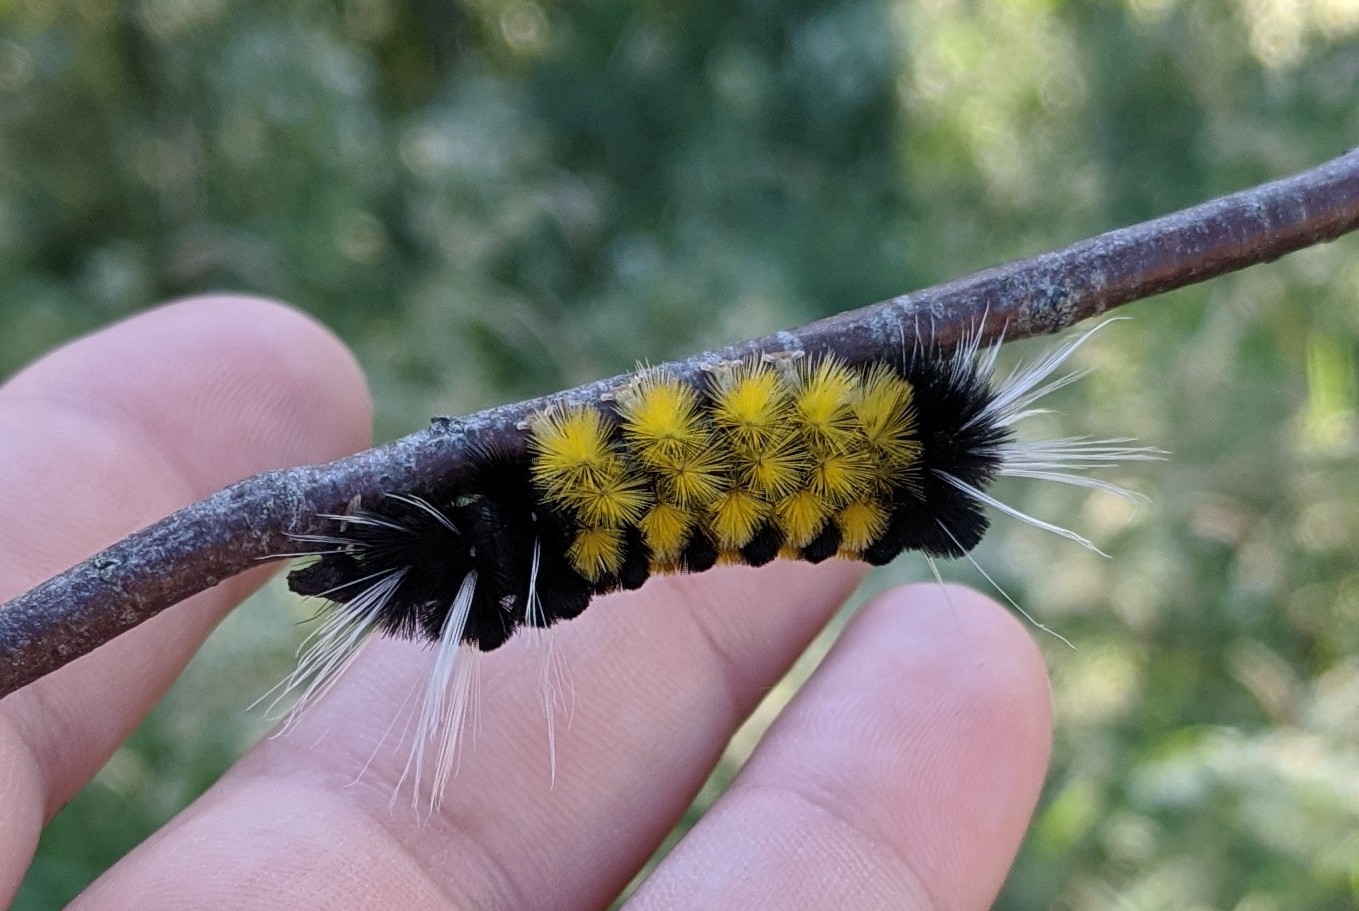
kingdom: Animalia
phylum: Arthropoda
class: Insecta
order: Lepidoptera
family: Erebidae
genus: Lophocampa
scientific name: Lophocampa maculata
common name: Spotted tussock moth
